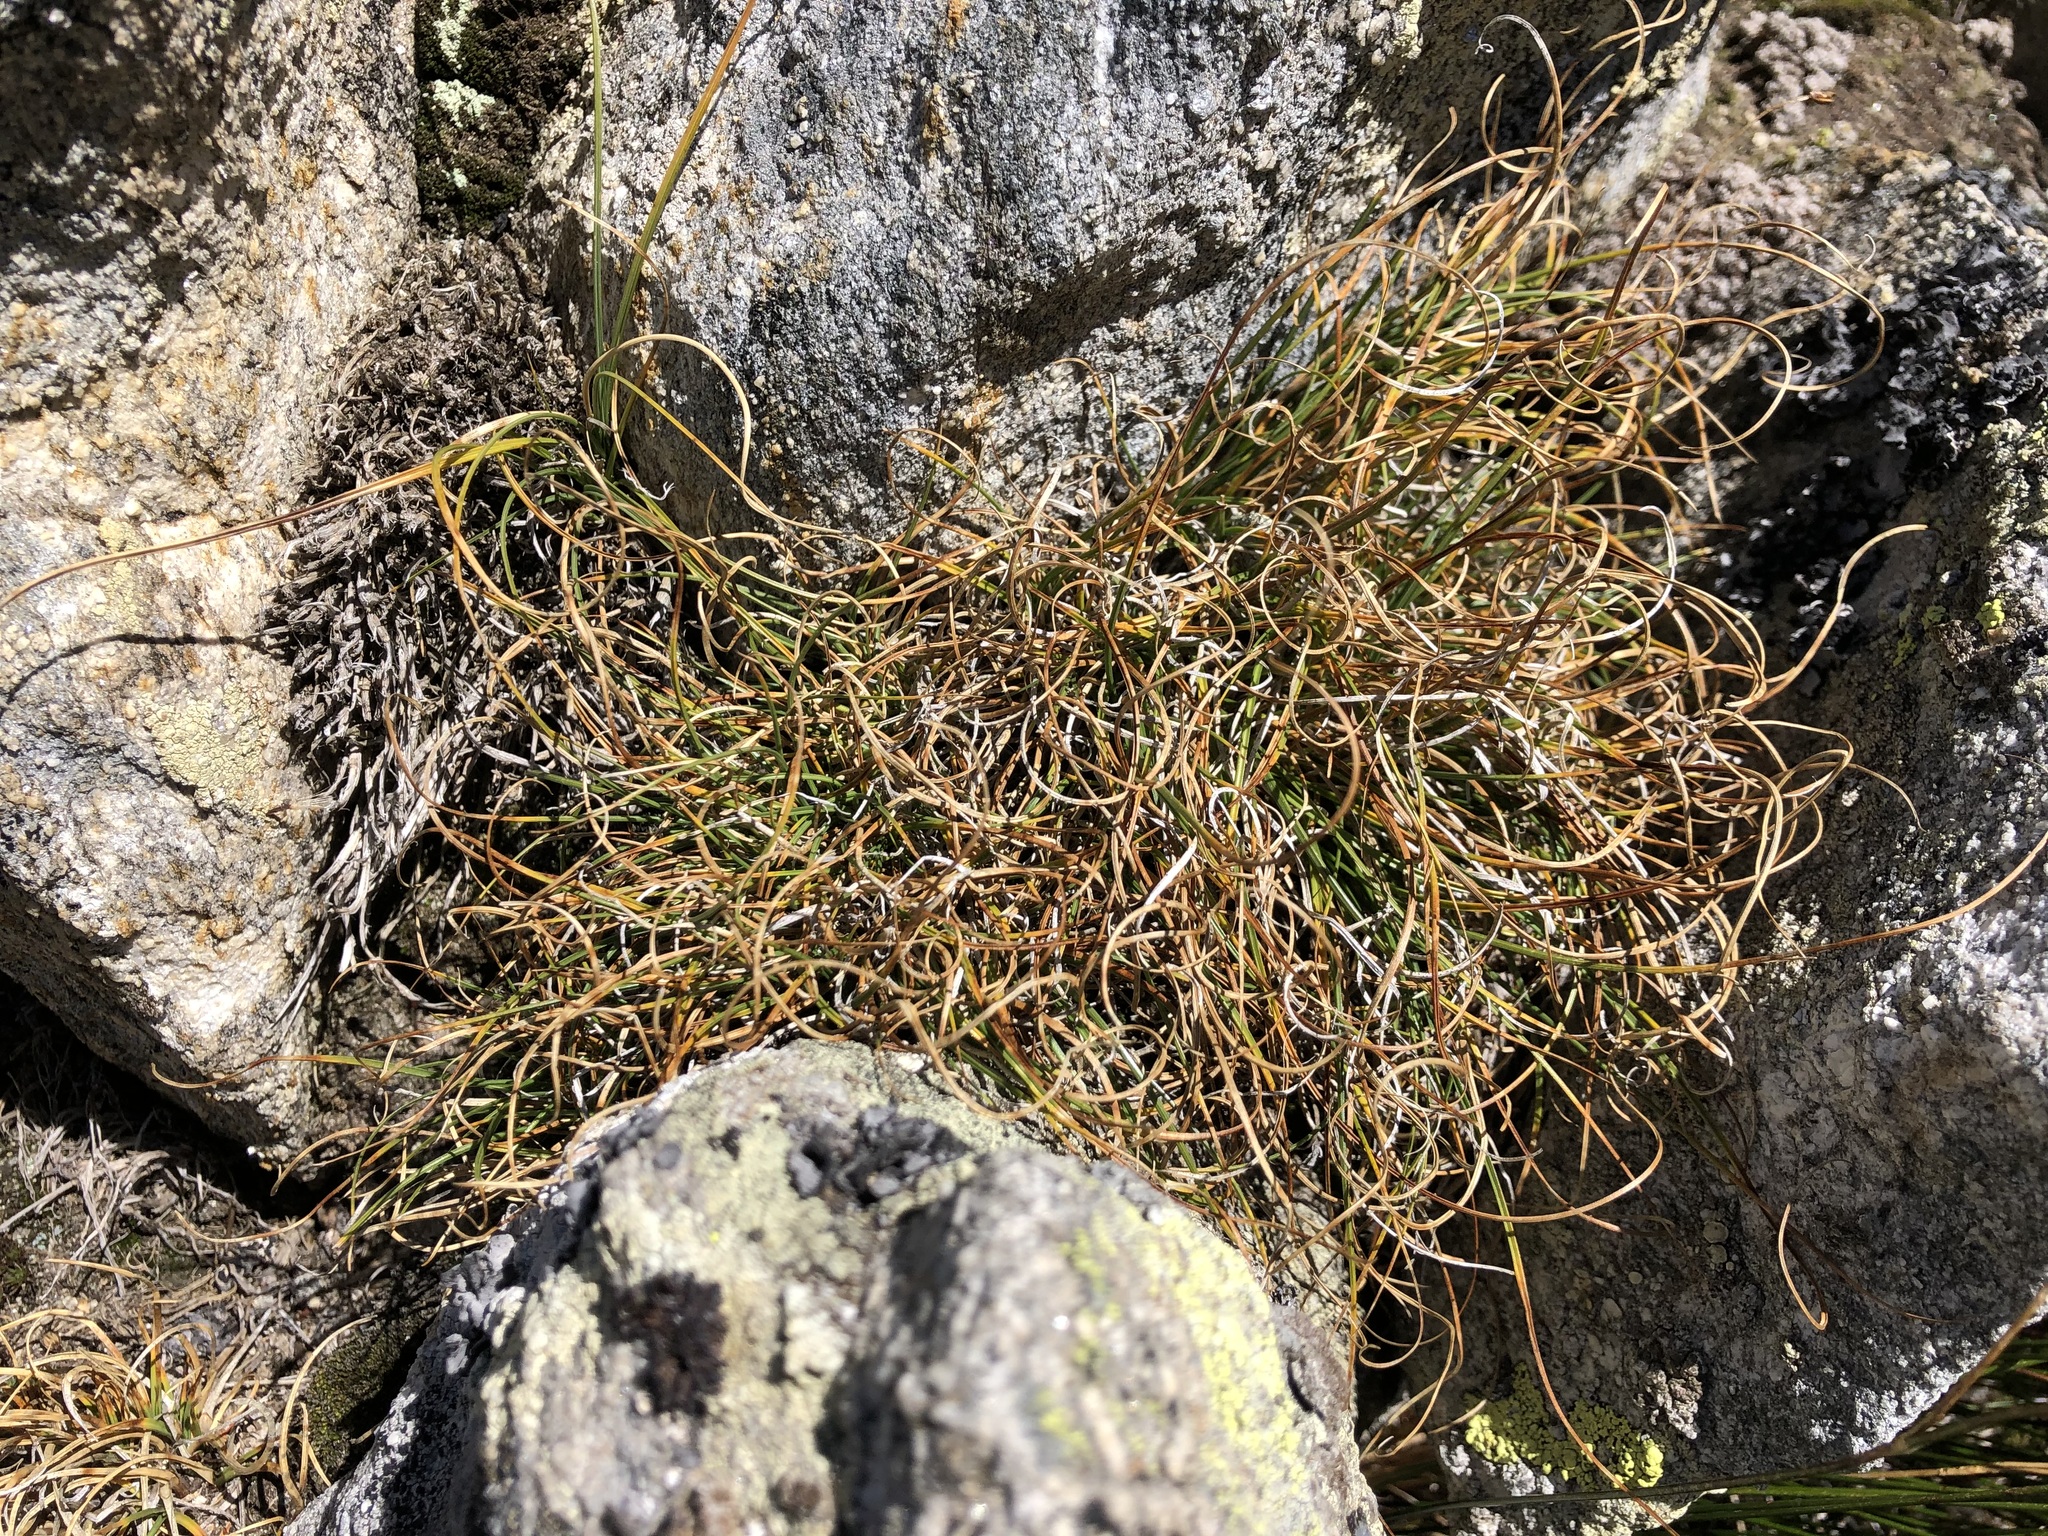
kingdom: Plantae
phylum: Tracheophyta
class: Liliopsida
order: Poales
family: Cyperaceae
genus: Carex
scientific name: Carex curvula
